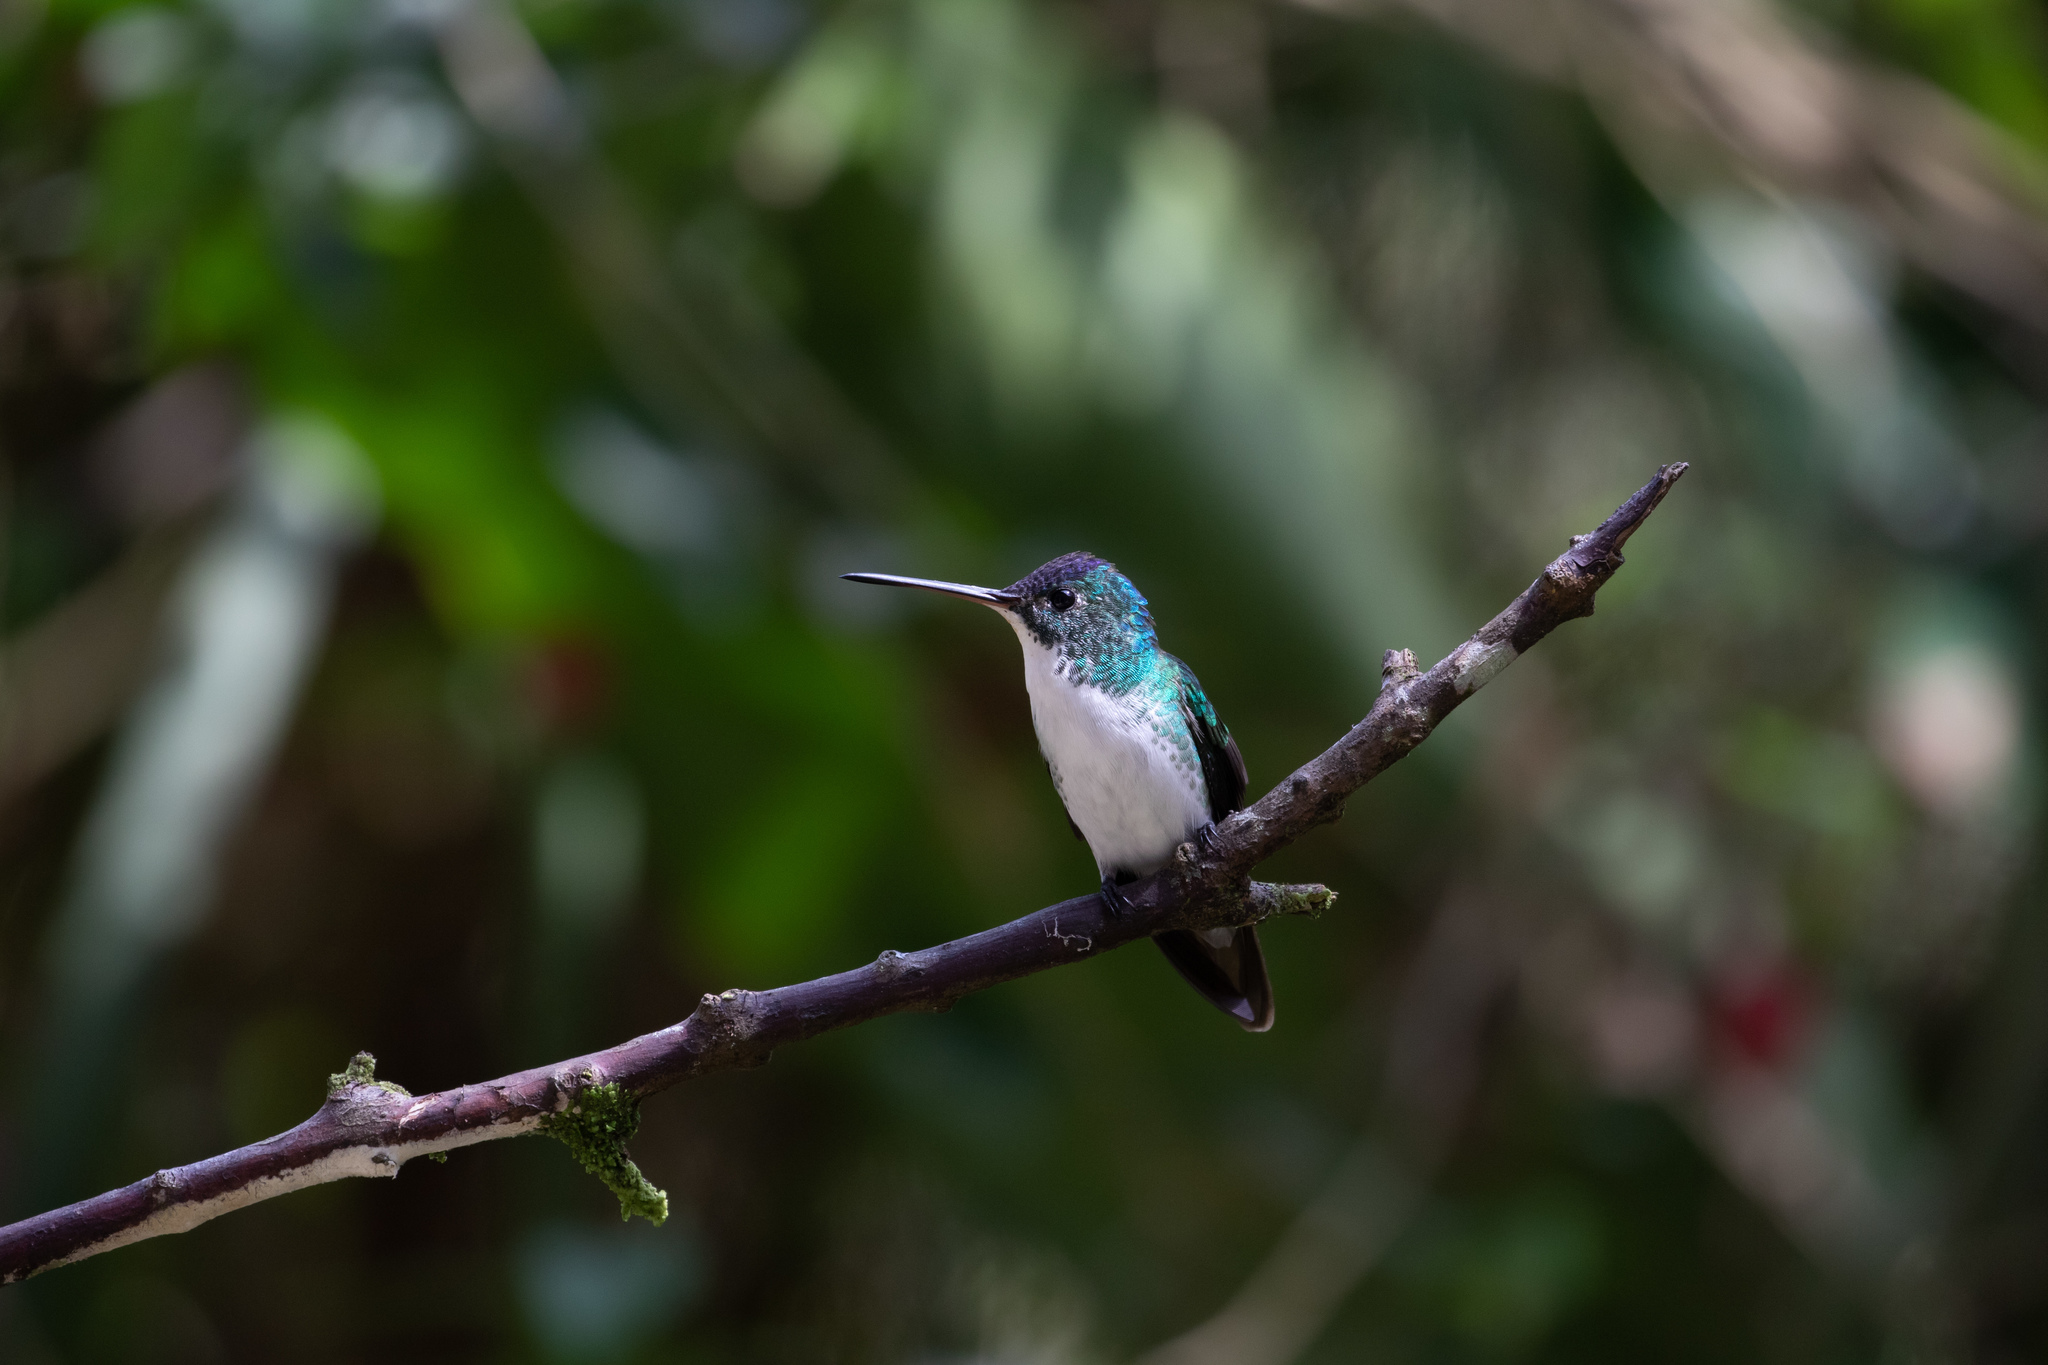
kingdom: Animalia
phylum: Chordata
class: Aves
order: Apodiformes
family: Trochilidae
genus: Uranomitra
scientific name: Uranomitra franciae
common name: Andean emerald
